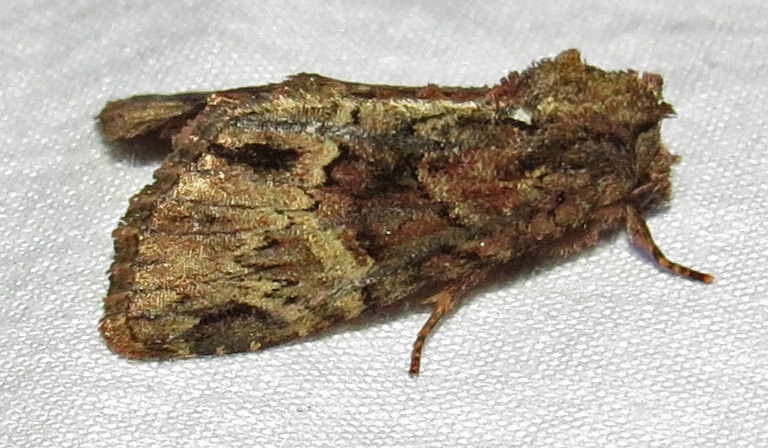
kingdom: Animalia
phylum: Arthropoda
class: Insecta
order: Lepidoptera
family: Noctuidae
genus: Phosphila
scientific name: Phosphila turbulenta
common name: Turbulent phosphila moth
